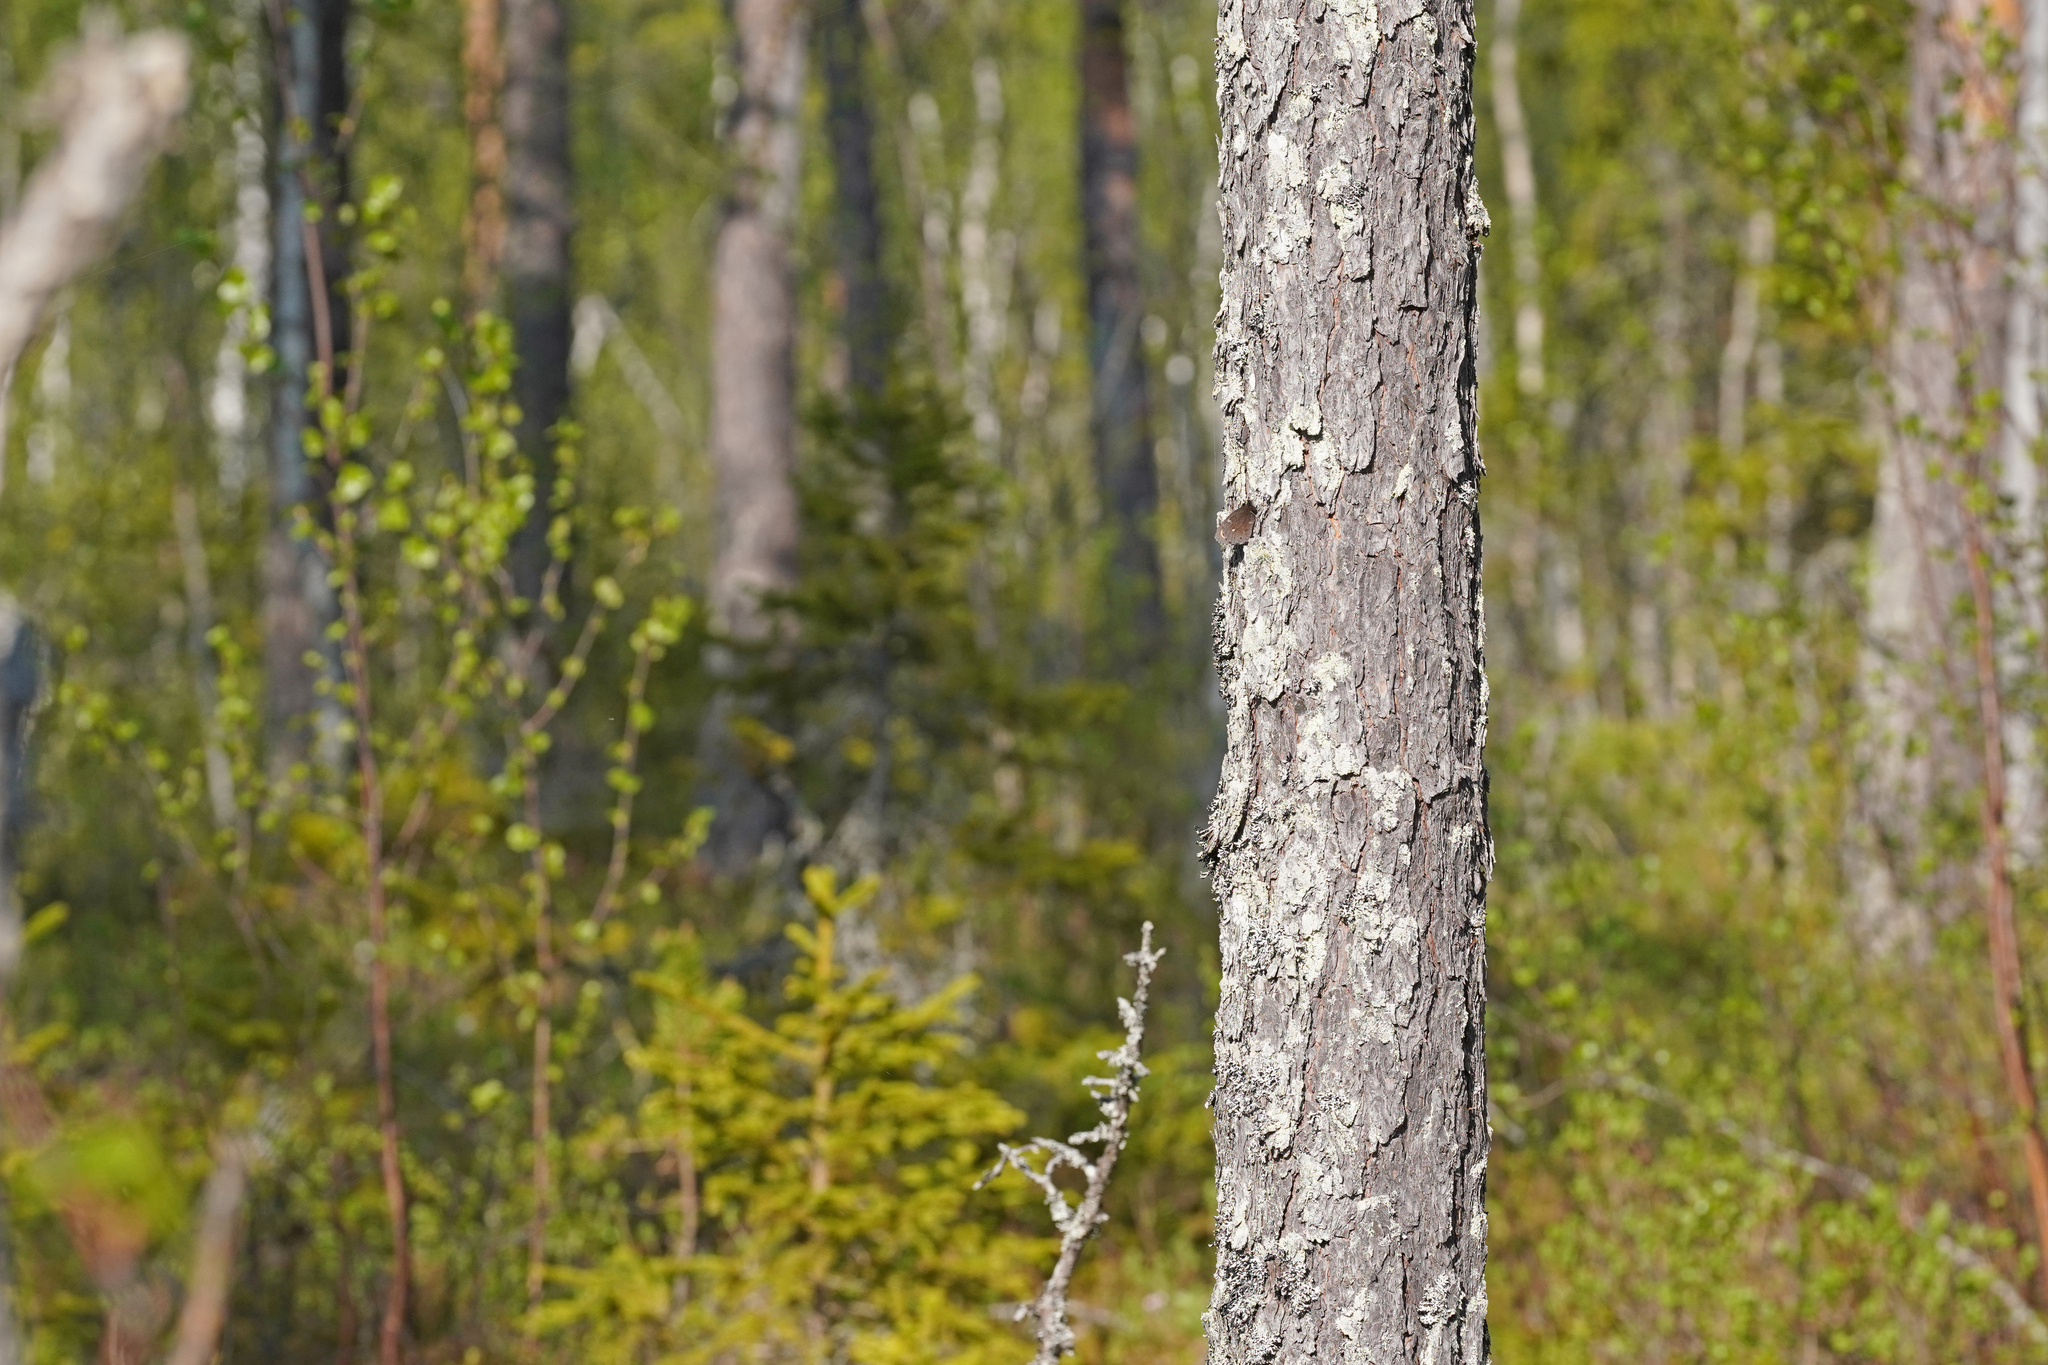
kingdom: Animalia
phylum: Arthropoda
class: Insecta
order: Lepidoptera
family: Nymphalidae
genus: Erebia
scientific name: Erebia embla
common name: Lapland ringlet
